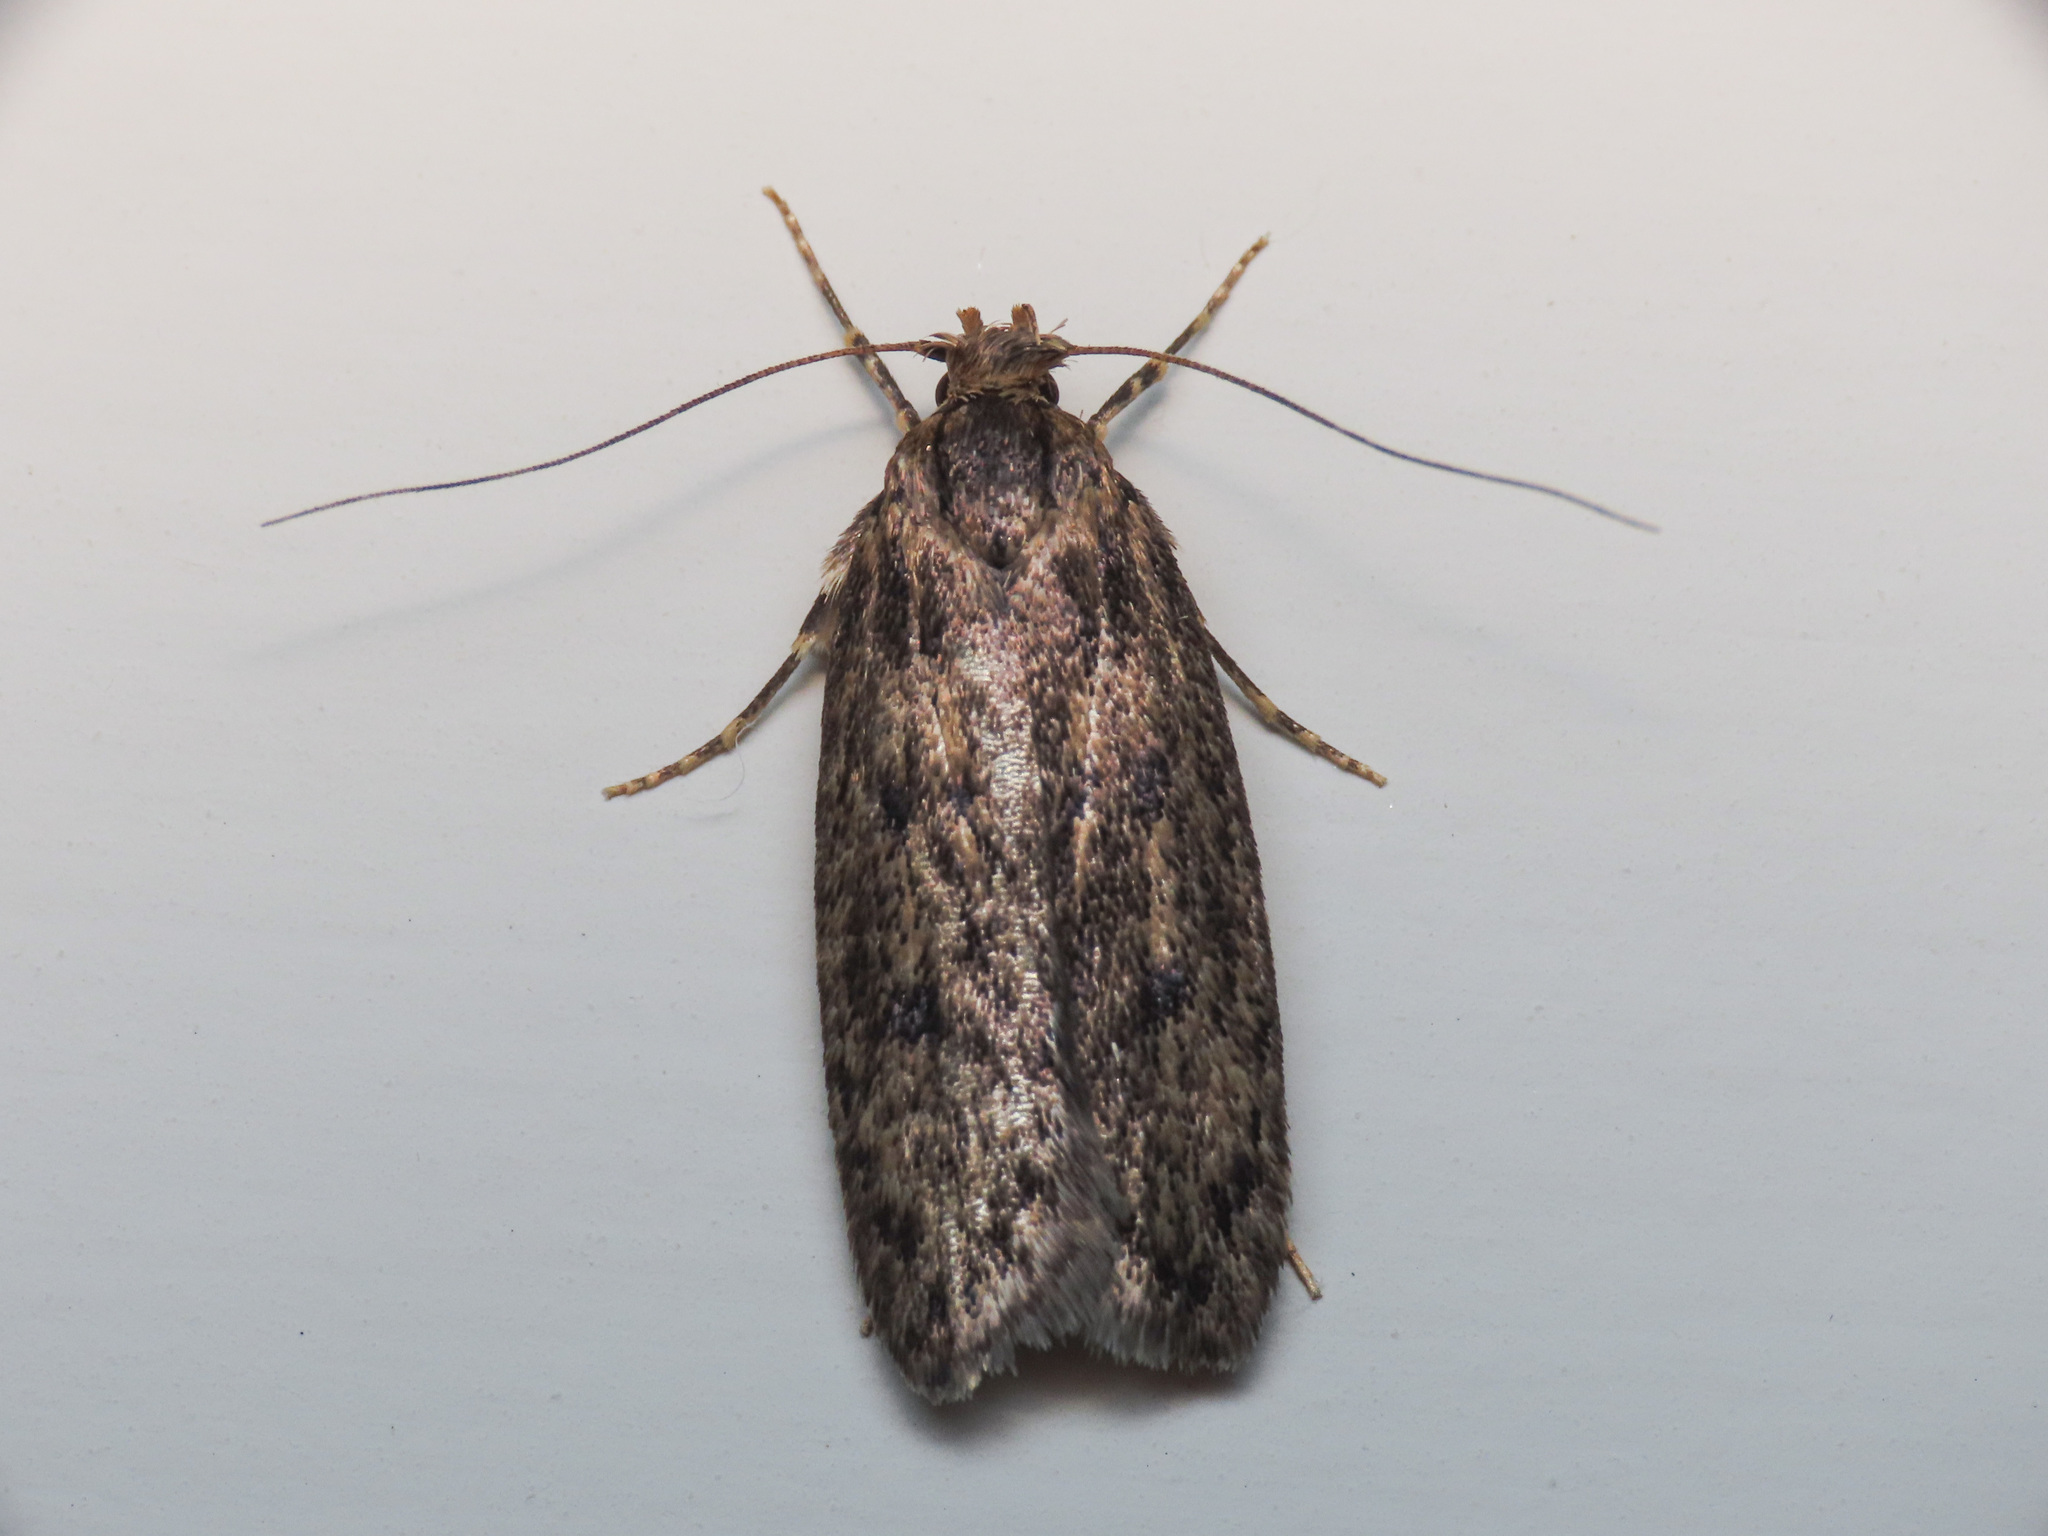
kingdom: Animalia
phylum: Arthropoda
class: Insecta
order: Lepidoptera
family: Oecophoridae
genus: Hofmannophila
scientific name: Hofmannophila pseudospretella
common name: Brown house moth
